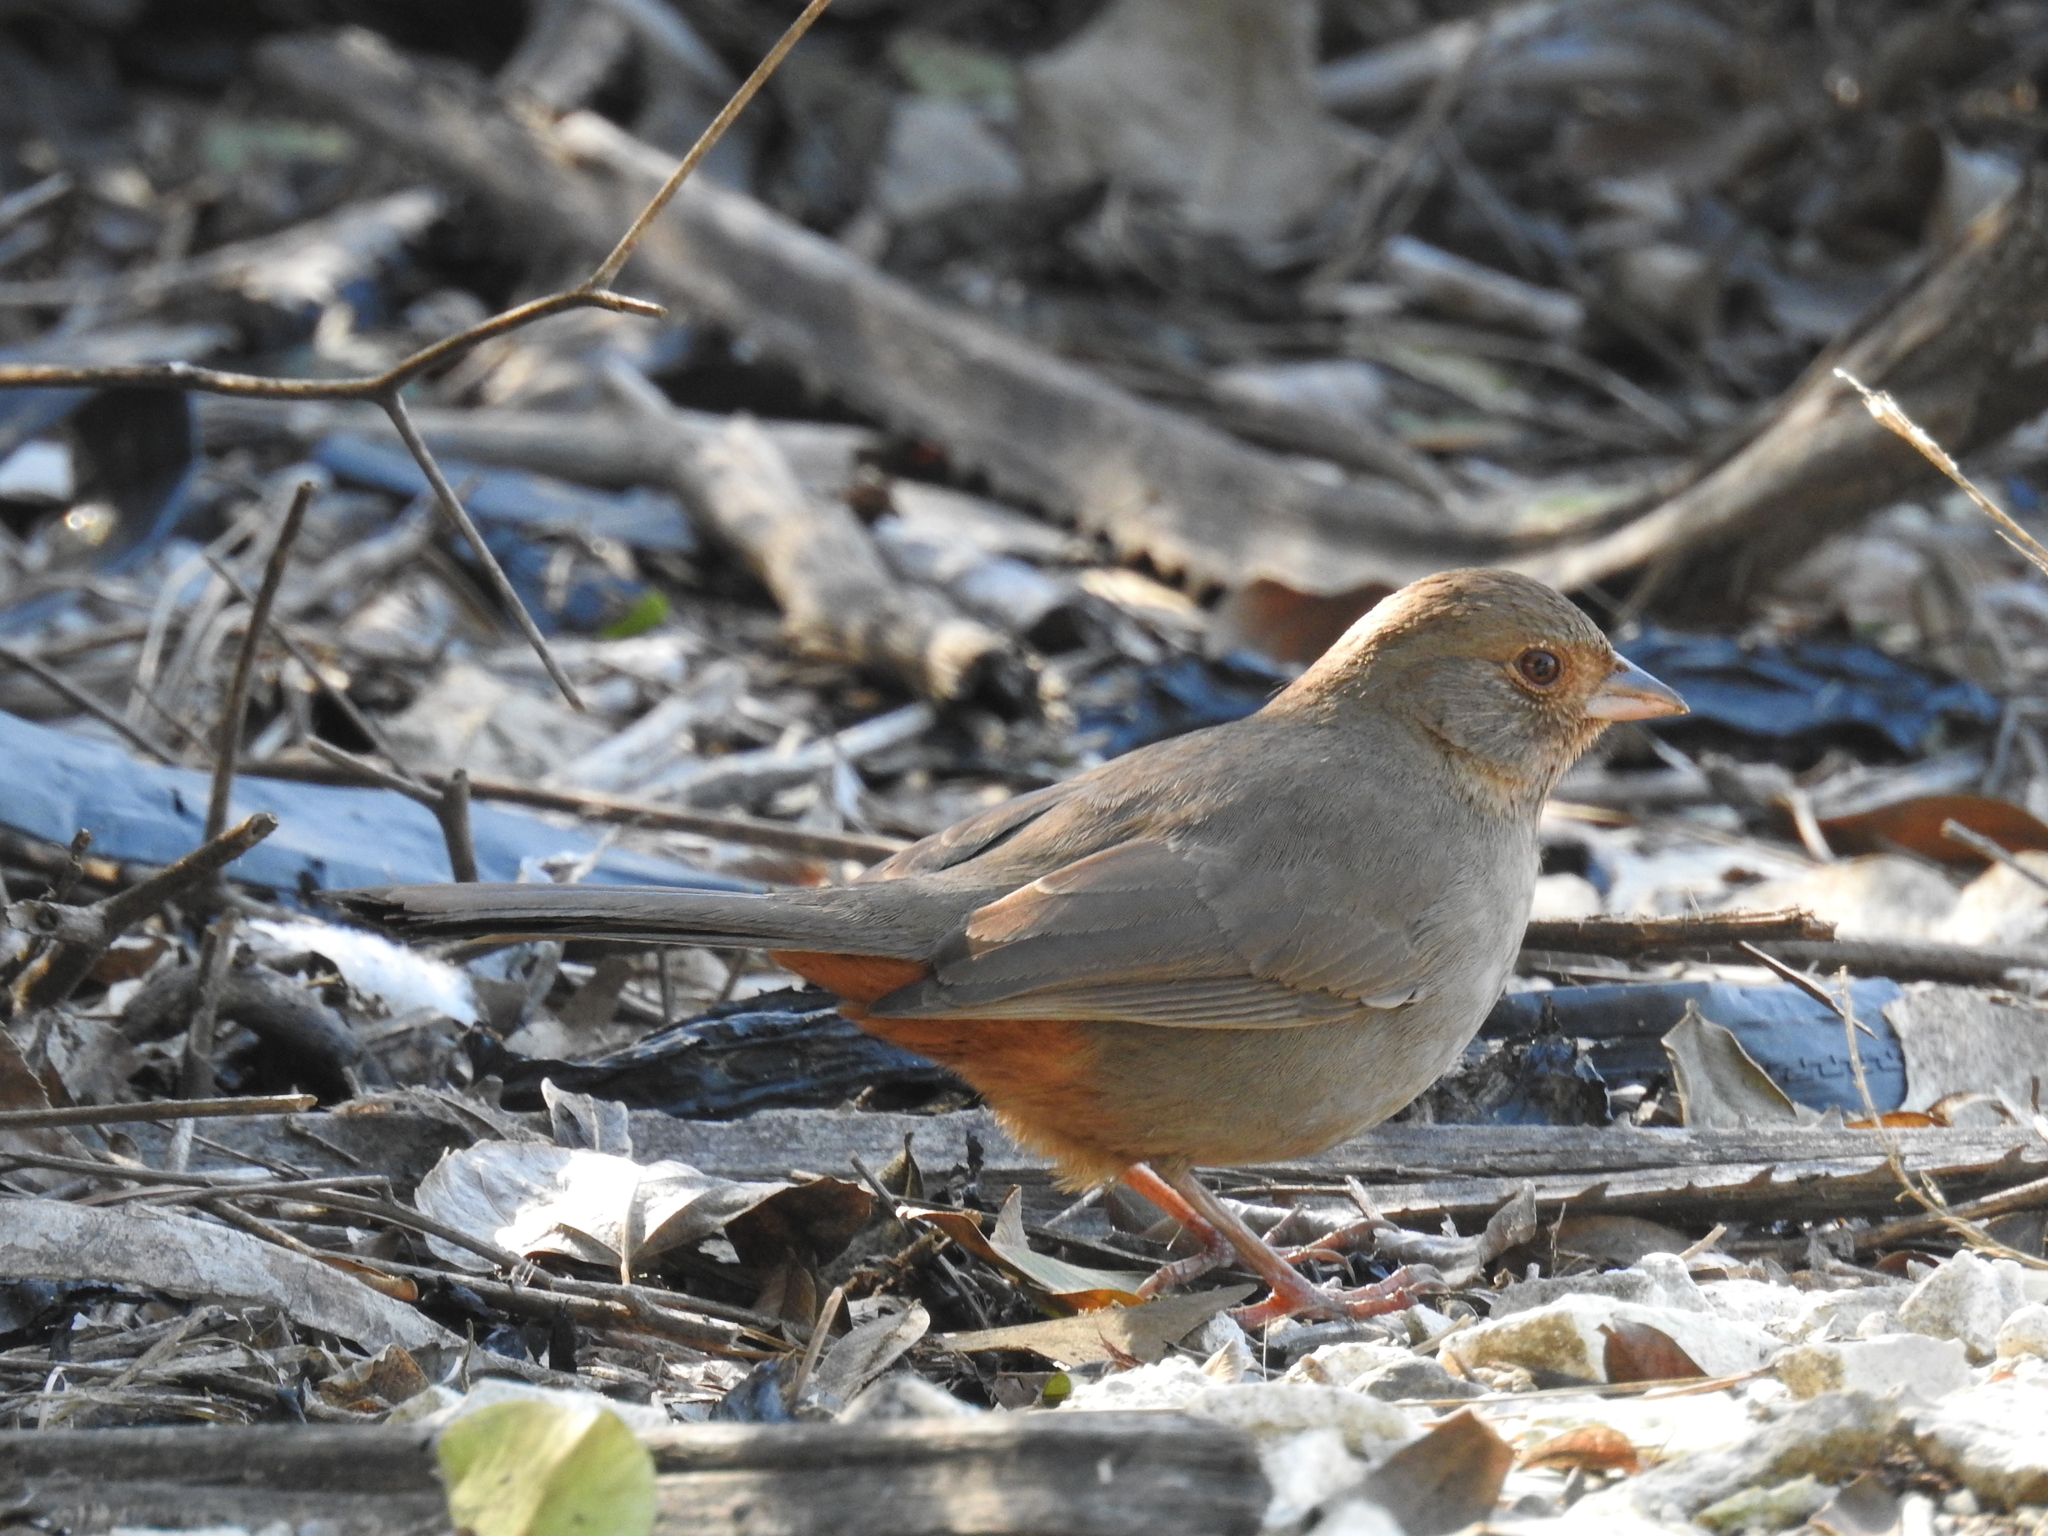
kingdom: Animalia
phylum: Chordata
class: Aves
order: Passeriformes
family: Passerellidae
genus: Melozone
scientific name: Melozone crissalis
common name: California towhee
